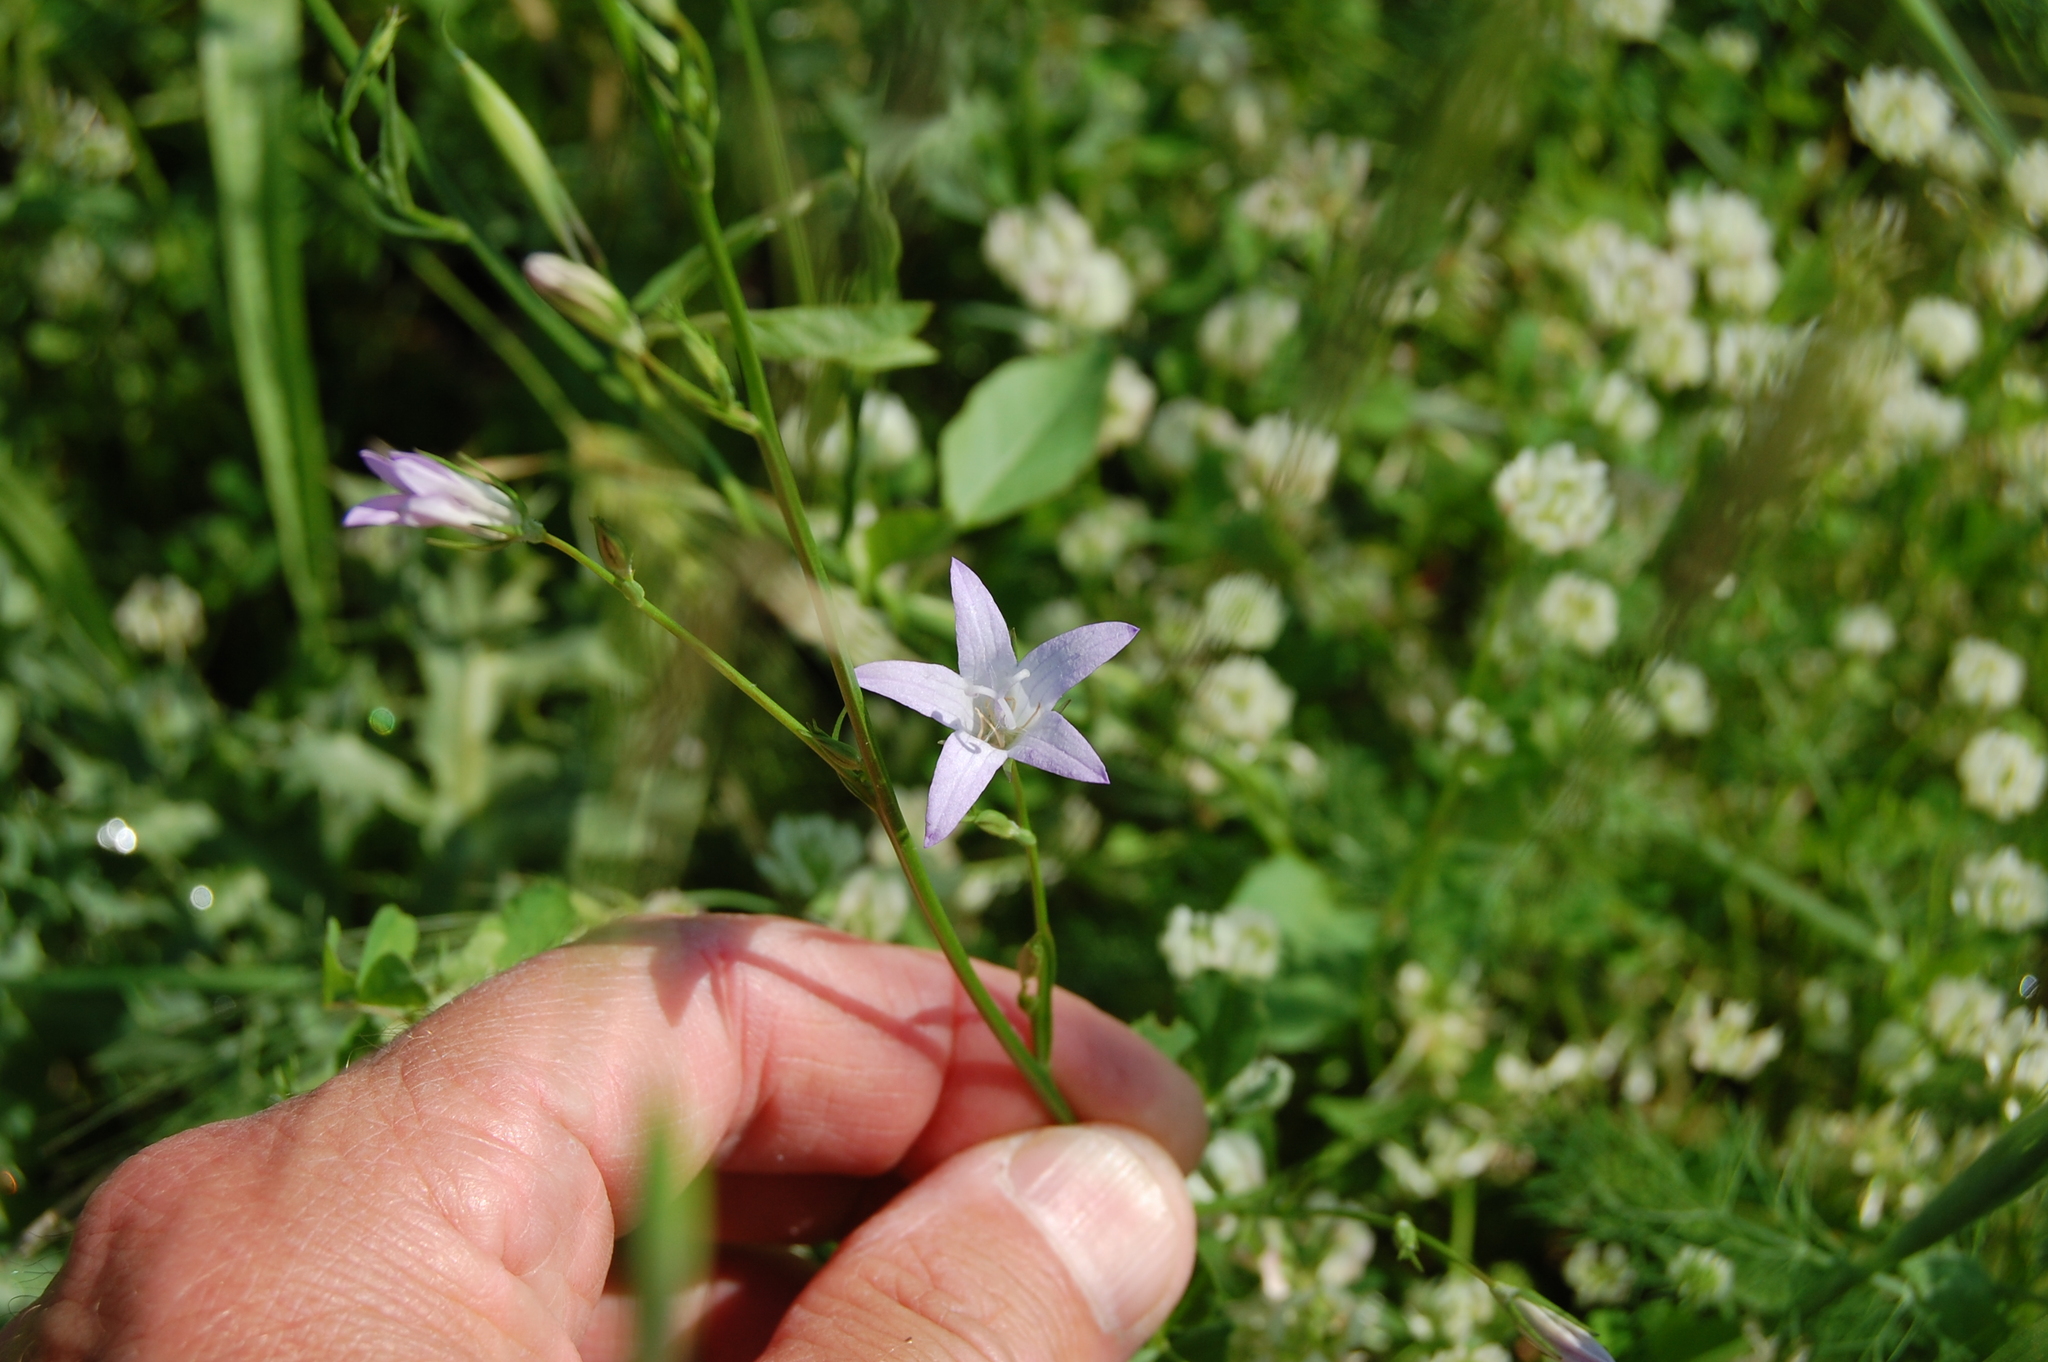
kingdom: Plantae
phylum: Tracheophyta
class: Magnoliopsida
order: Asterales
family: Campanulaceae
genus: Campanula
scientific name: Campanula rapunculus
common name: Rampion bellflower
